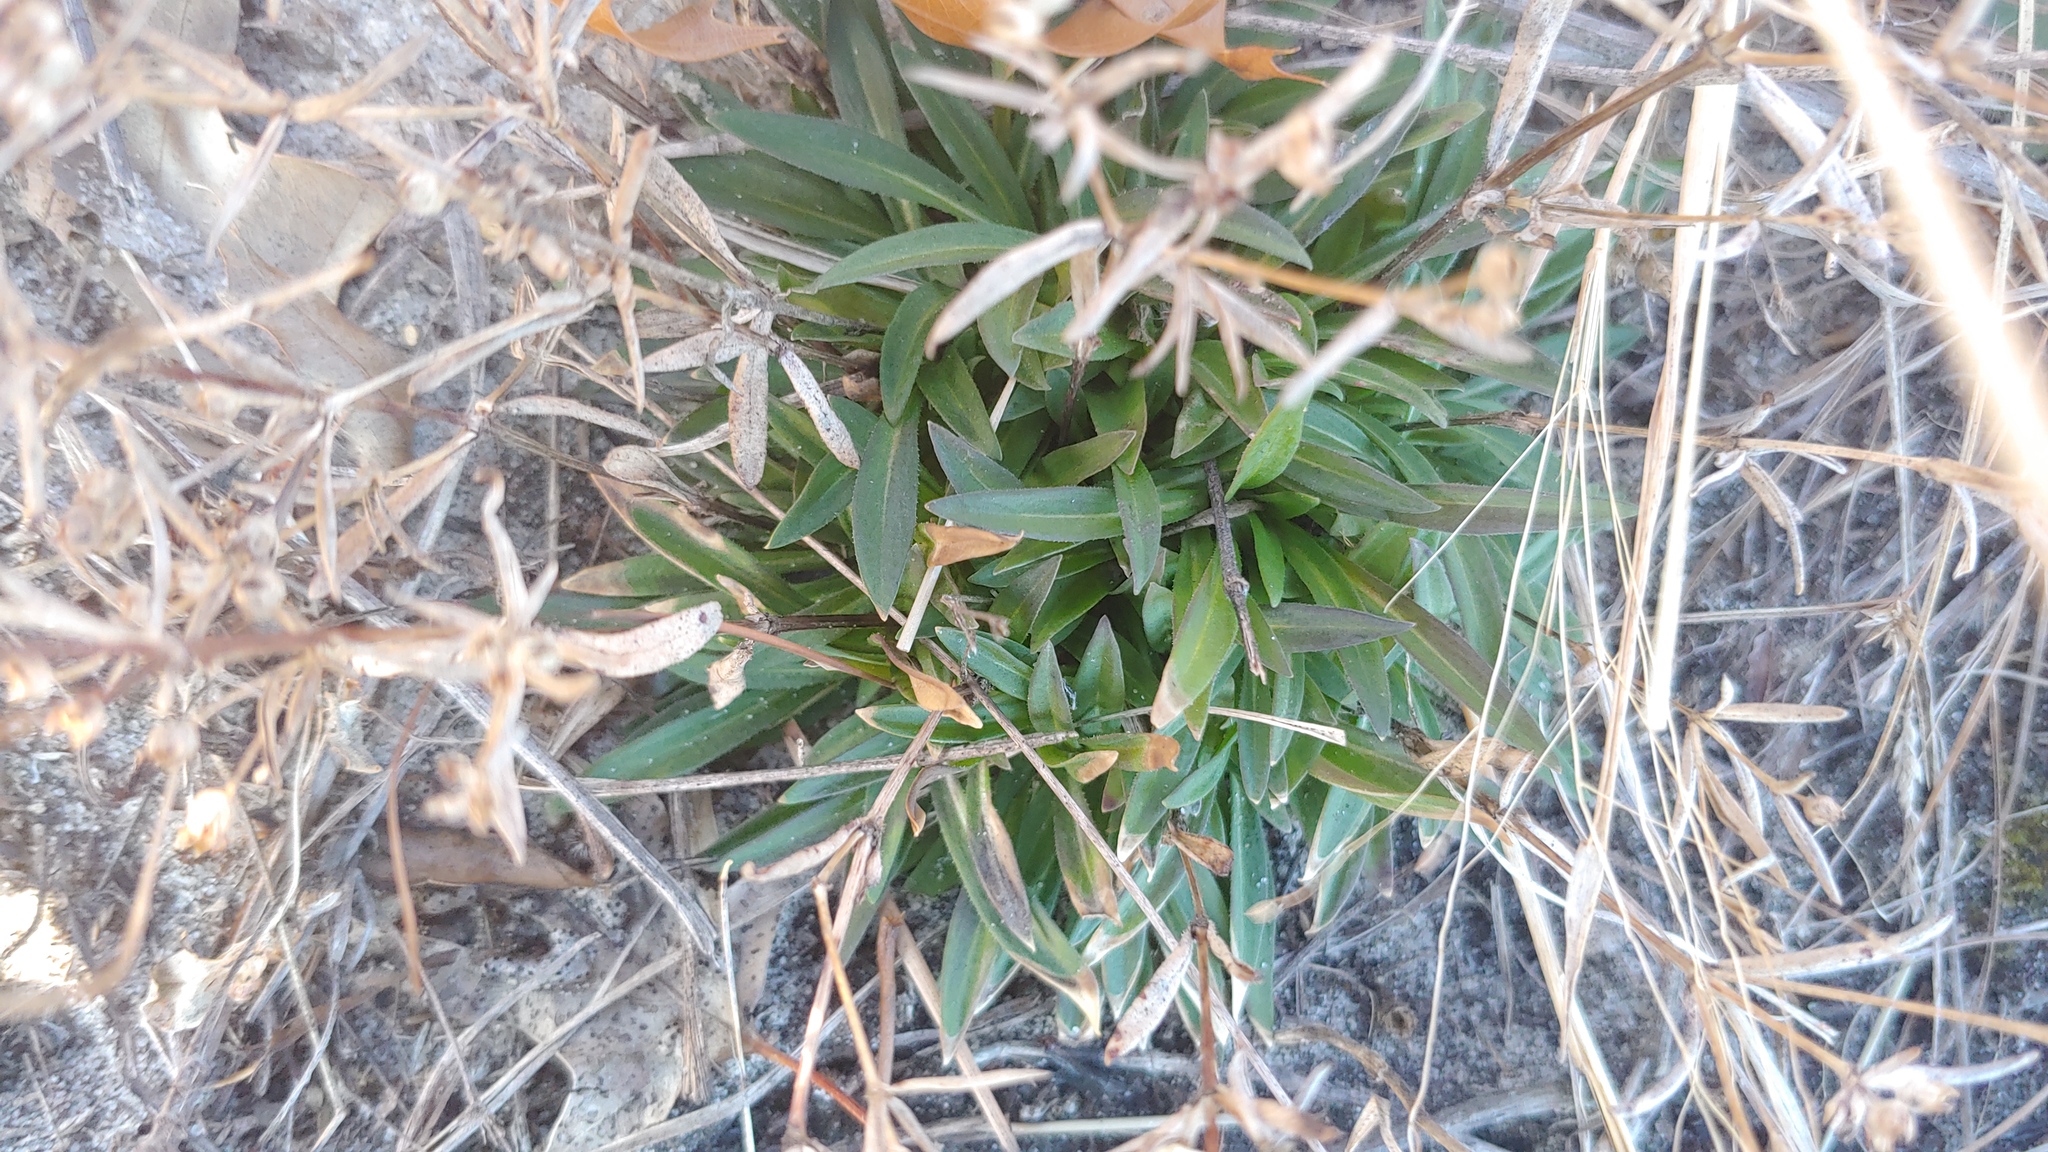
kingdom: Plantae
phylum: Tracheophyta
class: Magnoliopsida
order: Gentianales
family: Rubiaceae
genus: Houstonia
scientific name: Houstonia canadensis
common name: Fringed houstonia
